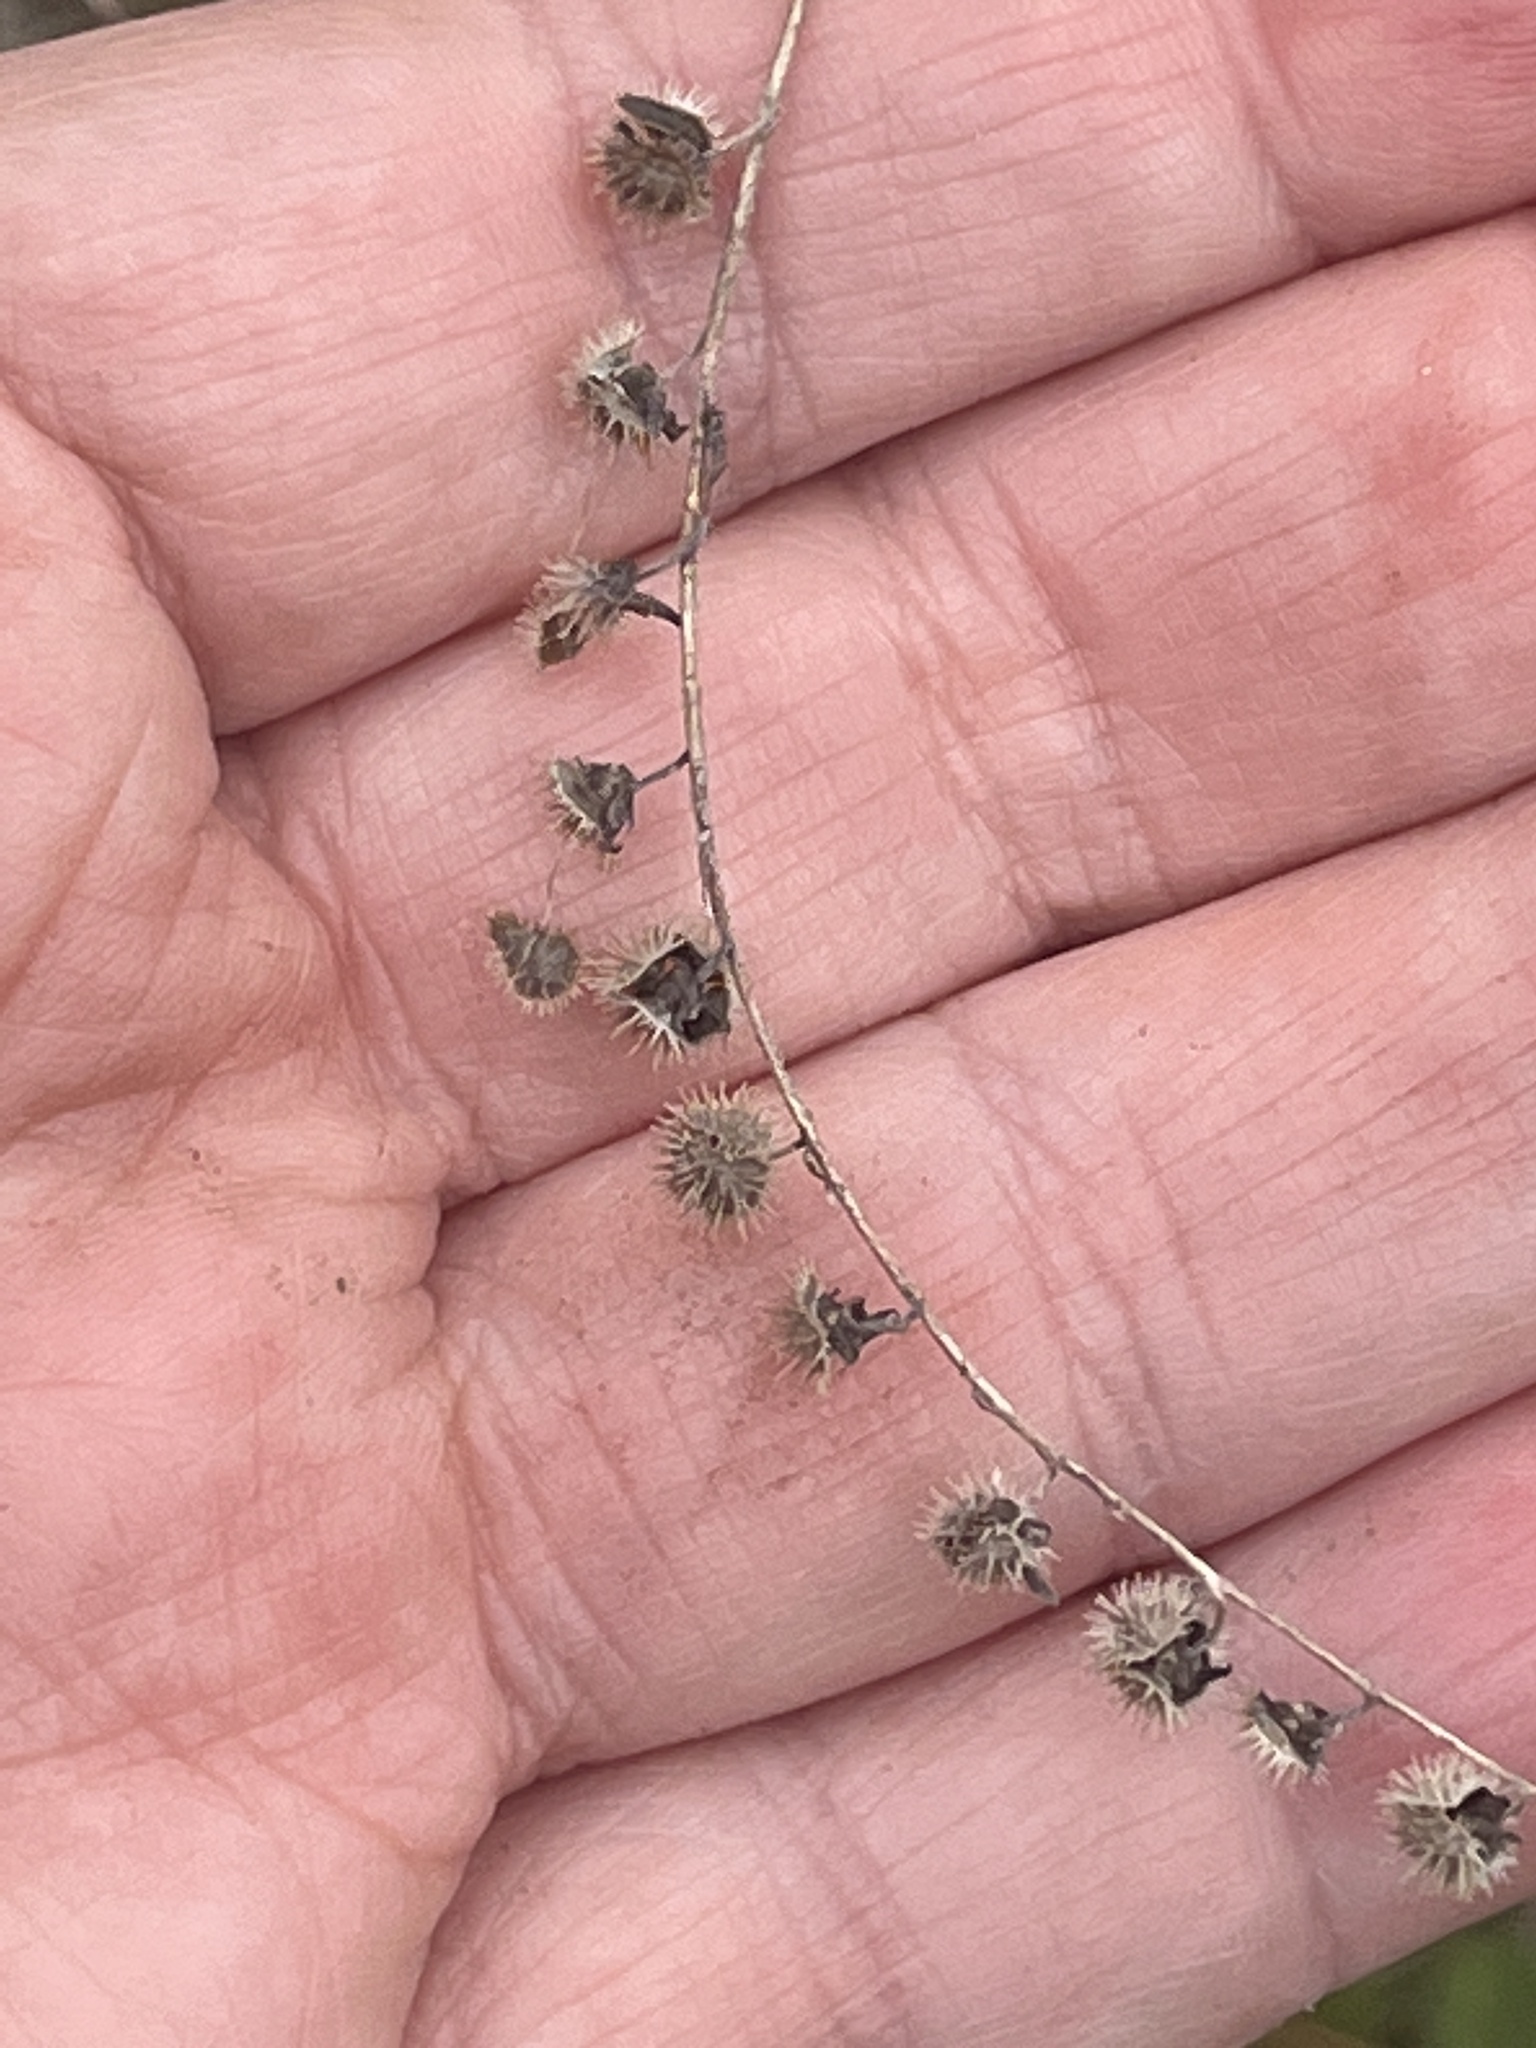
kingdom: Plantae
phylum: Tracheophyta
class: Magnoliopsida
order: Boraginales
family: Boraginaceae
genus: Hackelia
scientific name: Hackelia virginiana
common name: Beggar's-lice
